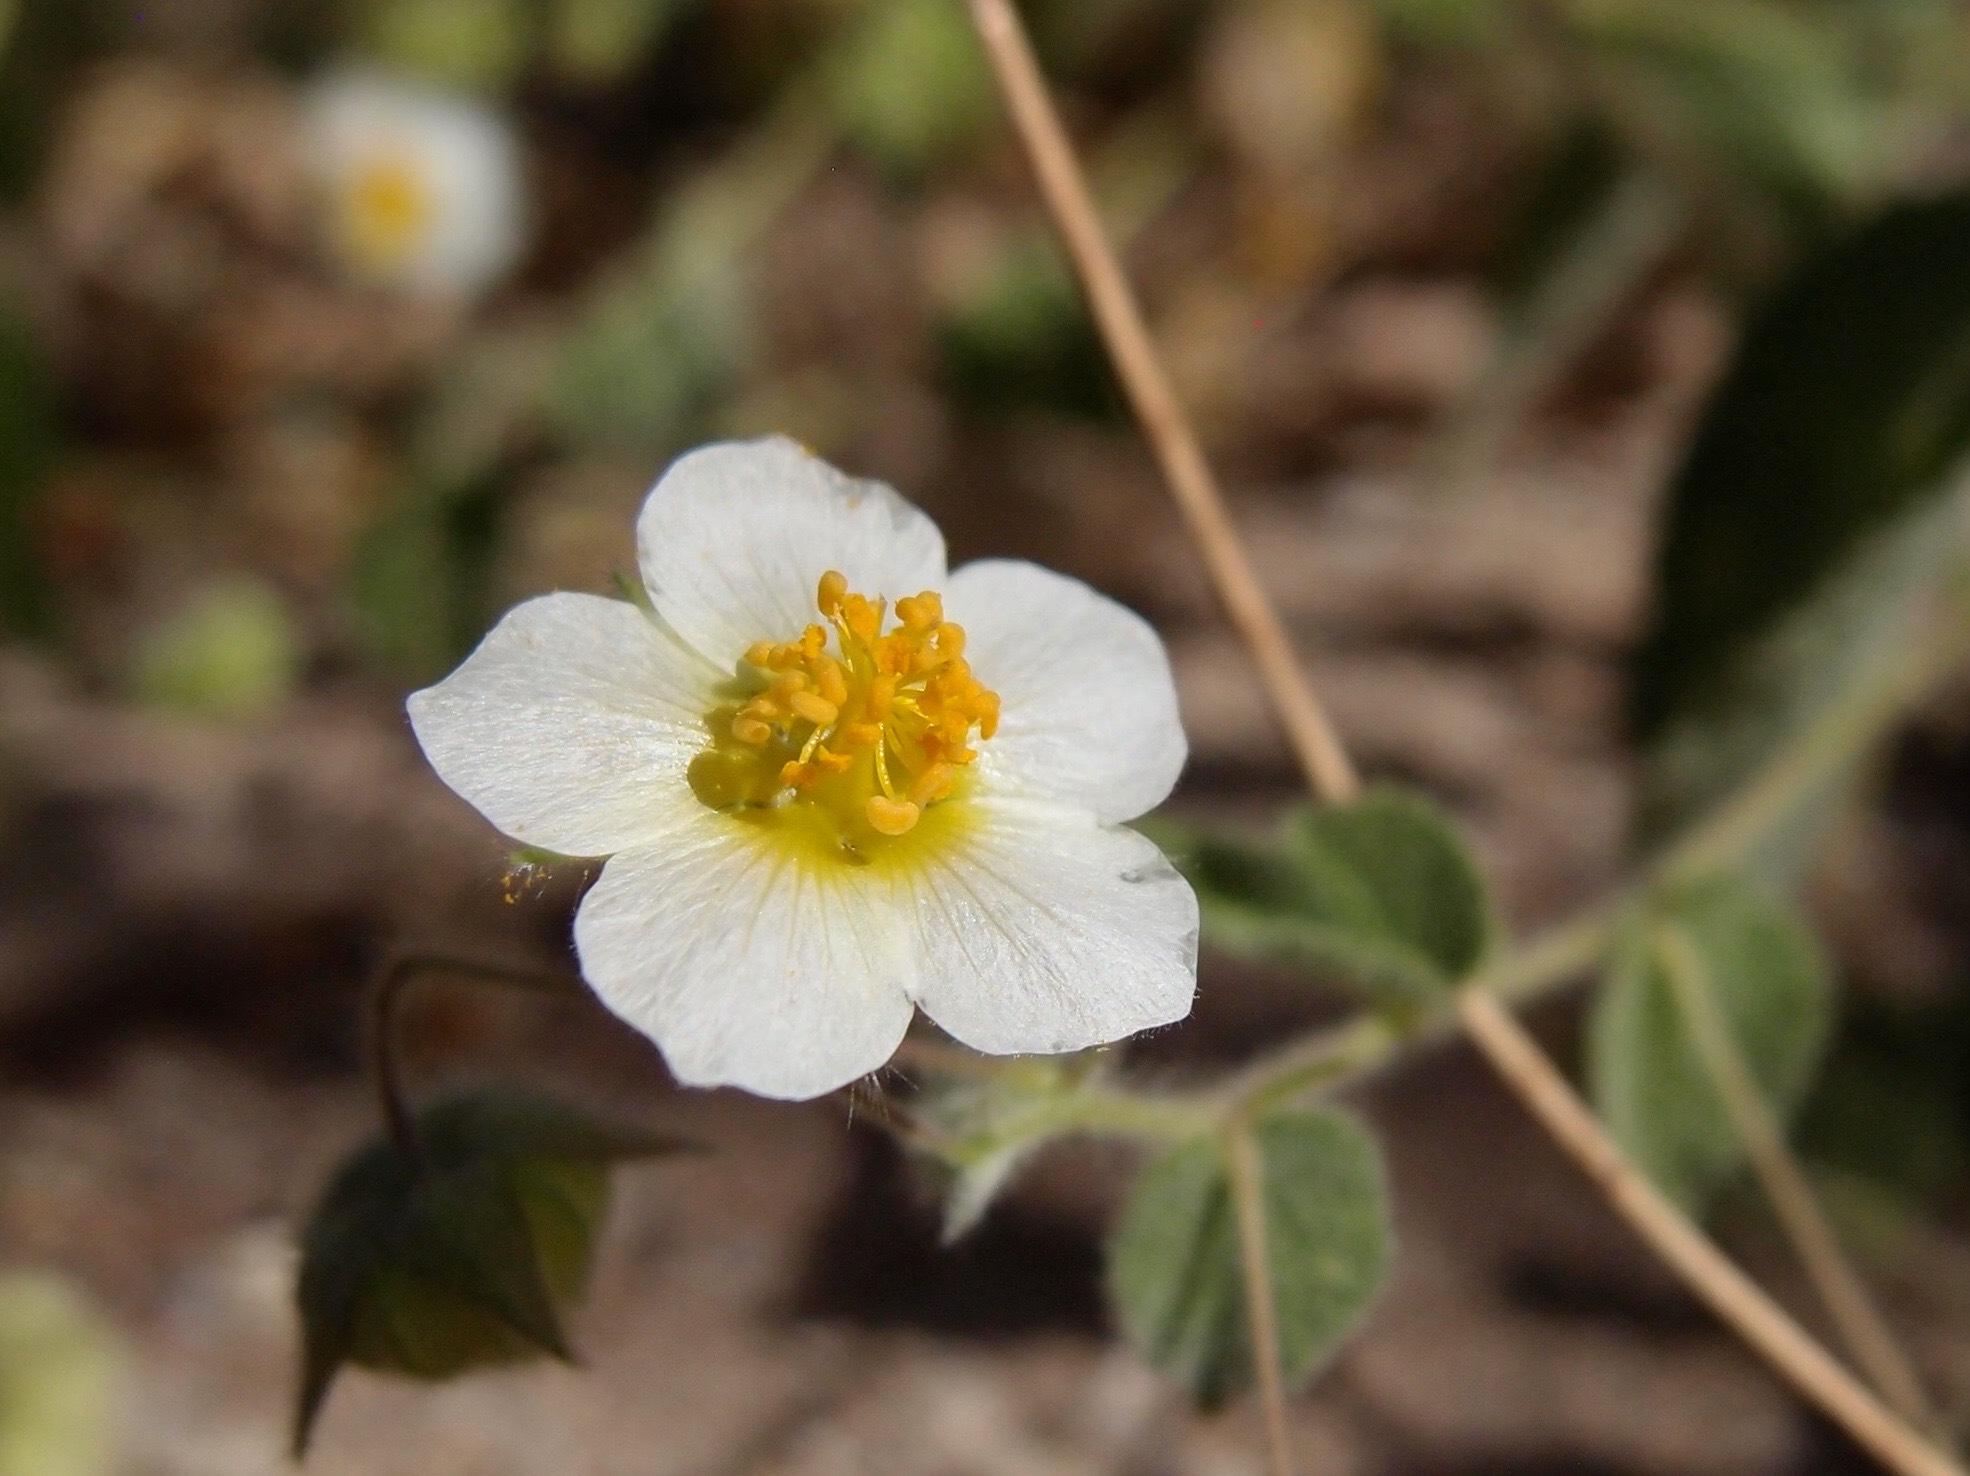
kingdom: Plantae
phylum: Tracheophyta
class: Magnoliopsida
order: Malvales
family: Malvaceae
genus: Herissantia
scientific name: Herissantia crispa
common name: Bladdermallow
